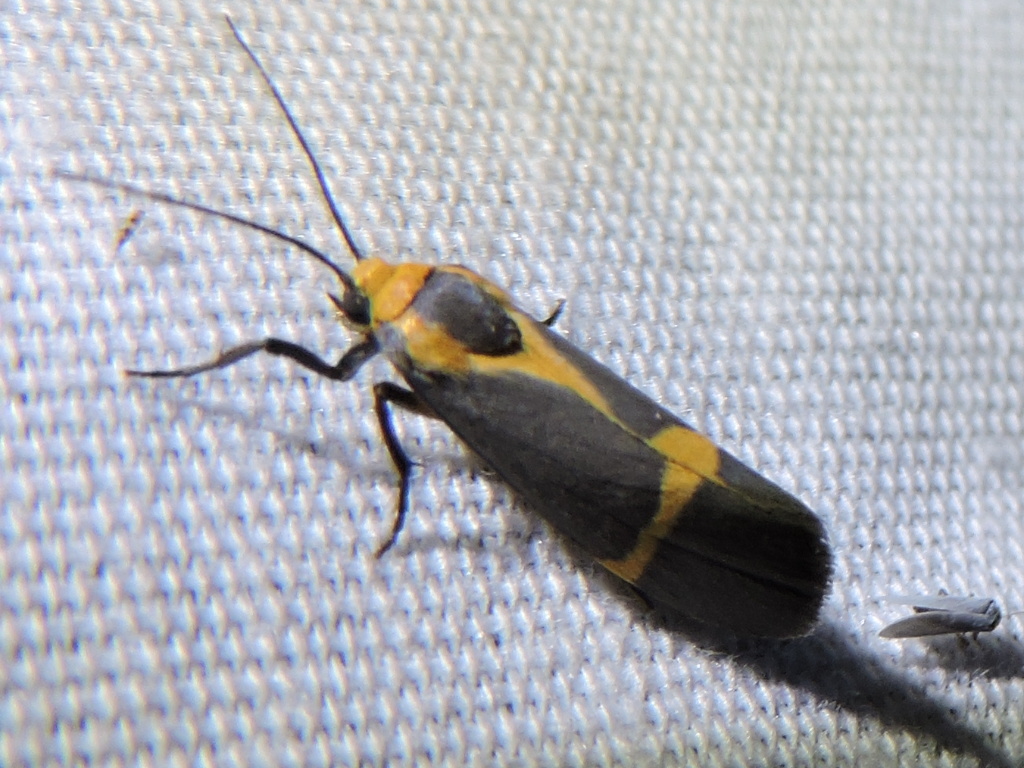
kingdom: Animalia
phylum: Arthropoda
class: Insecta
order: Lepidoptera
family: Erebidae
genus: Cisthene
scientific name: Cisthene tenuifascia
